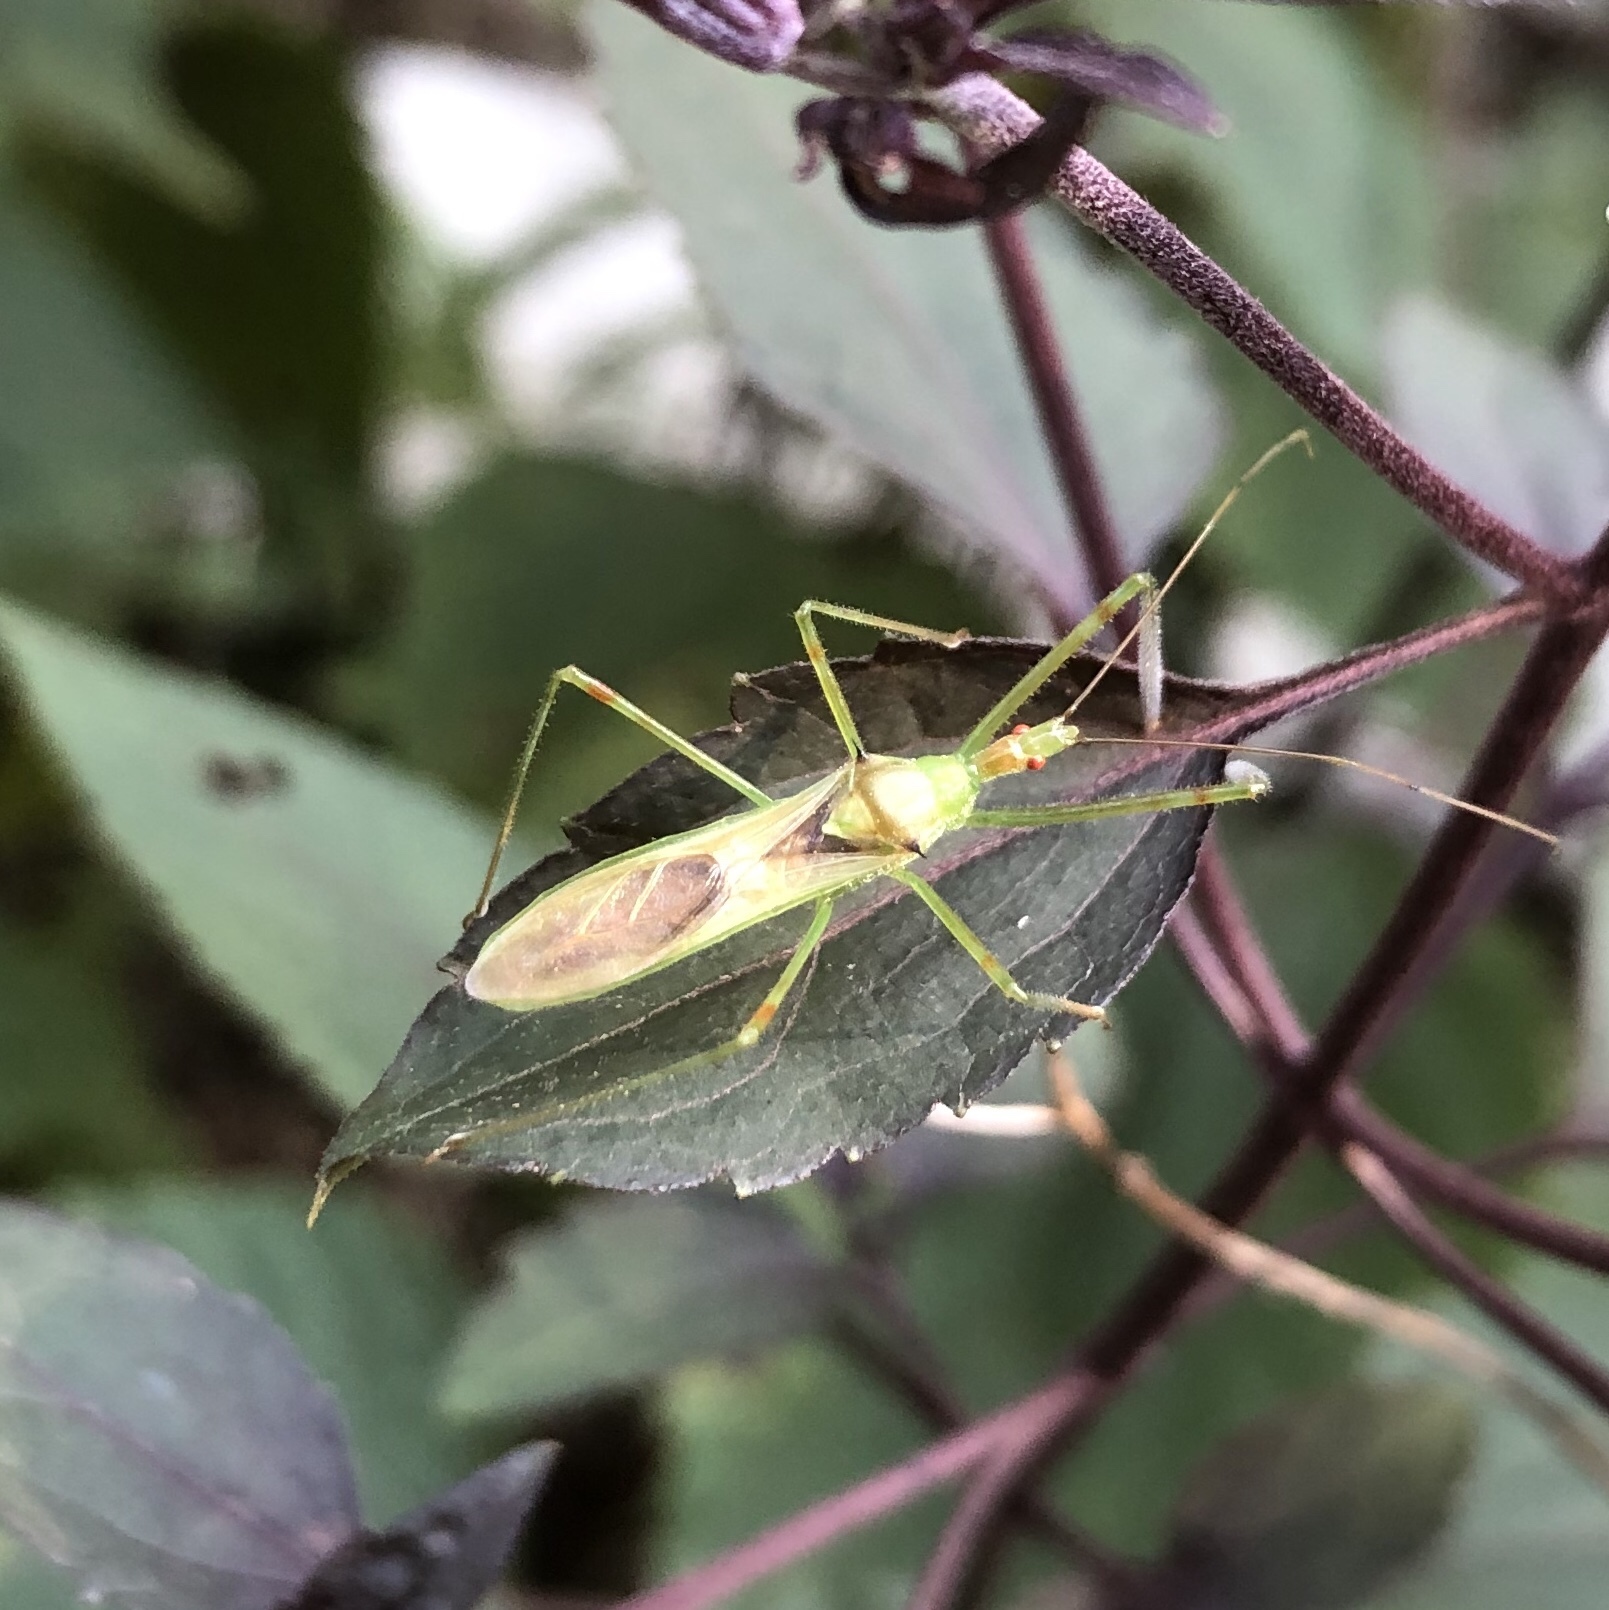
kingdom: Animalia
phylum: Arthropoda
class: Insecta
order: Hemiptera
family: Reduviidae
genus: Zelus
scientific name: Zelus luridus
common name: Pale green assassin bug
